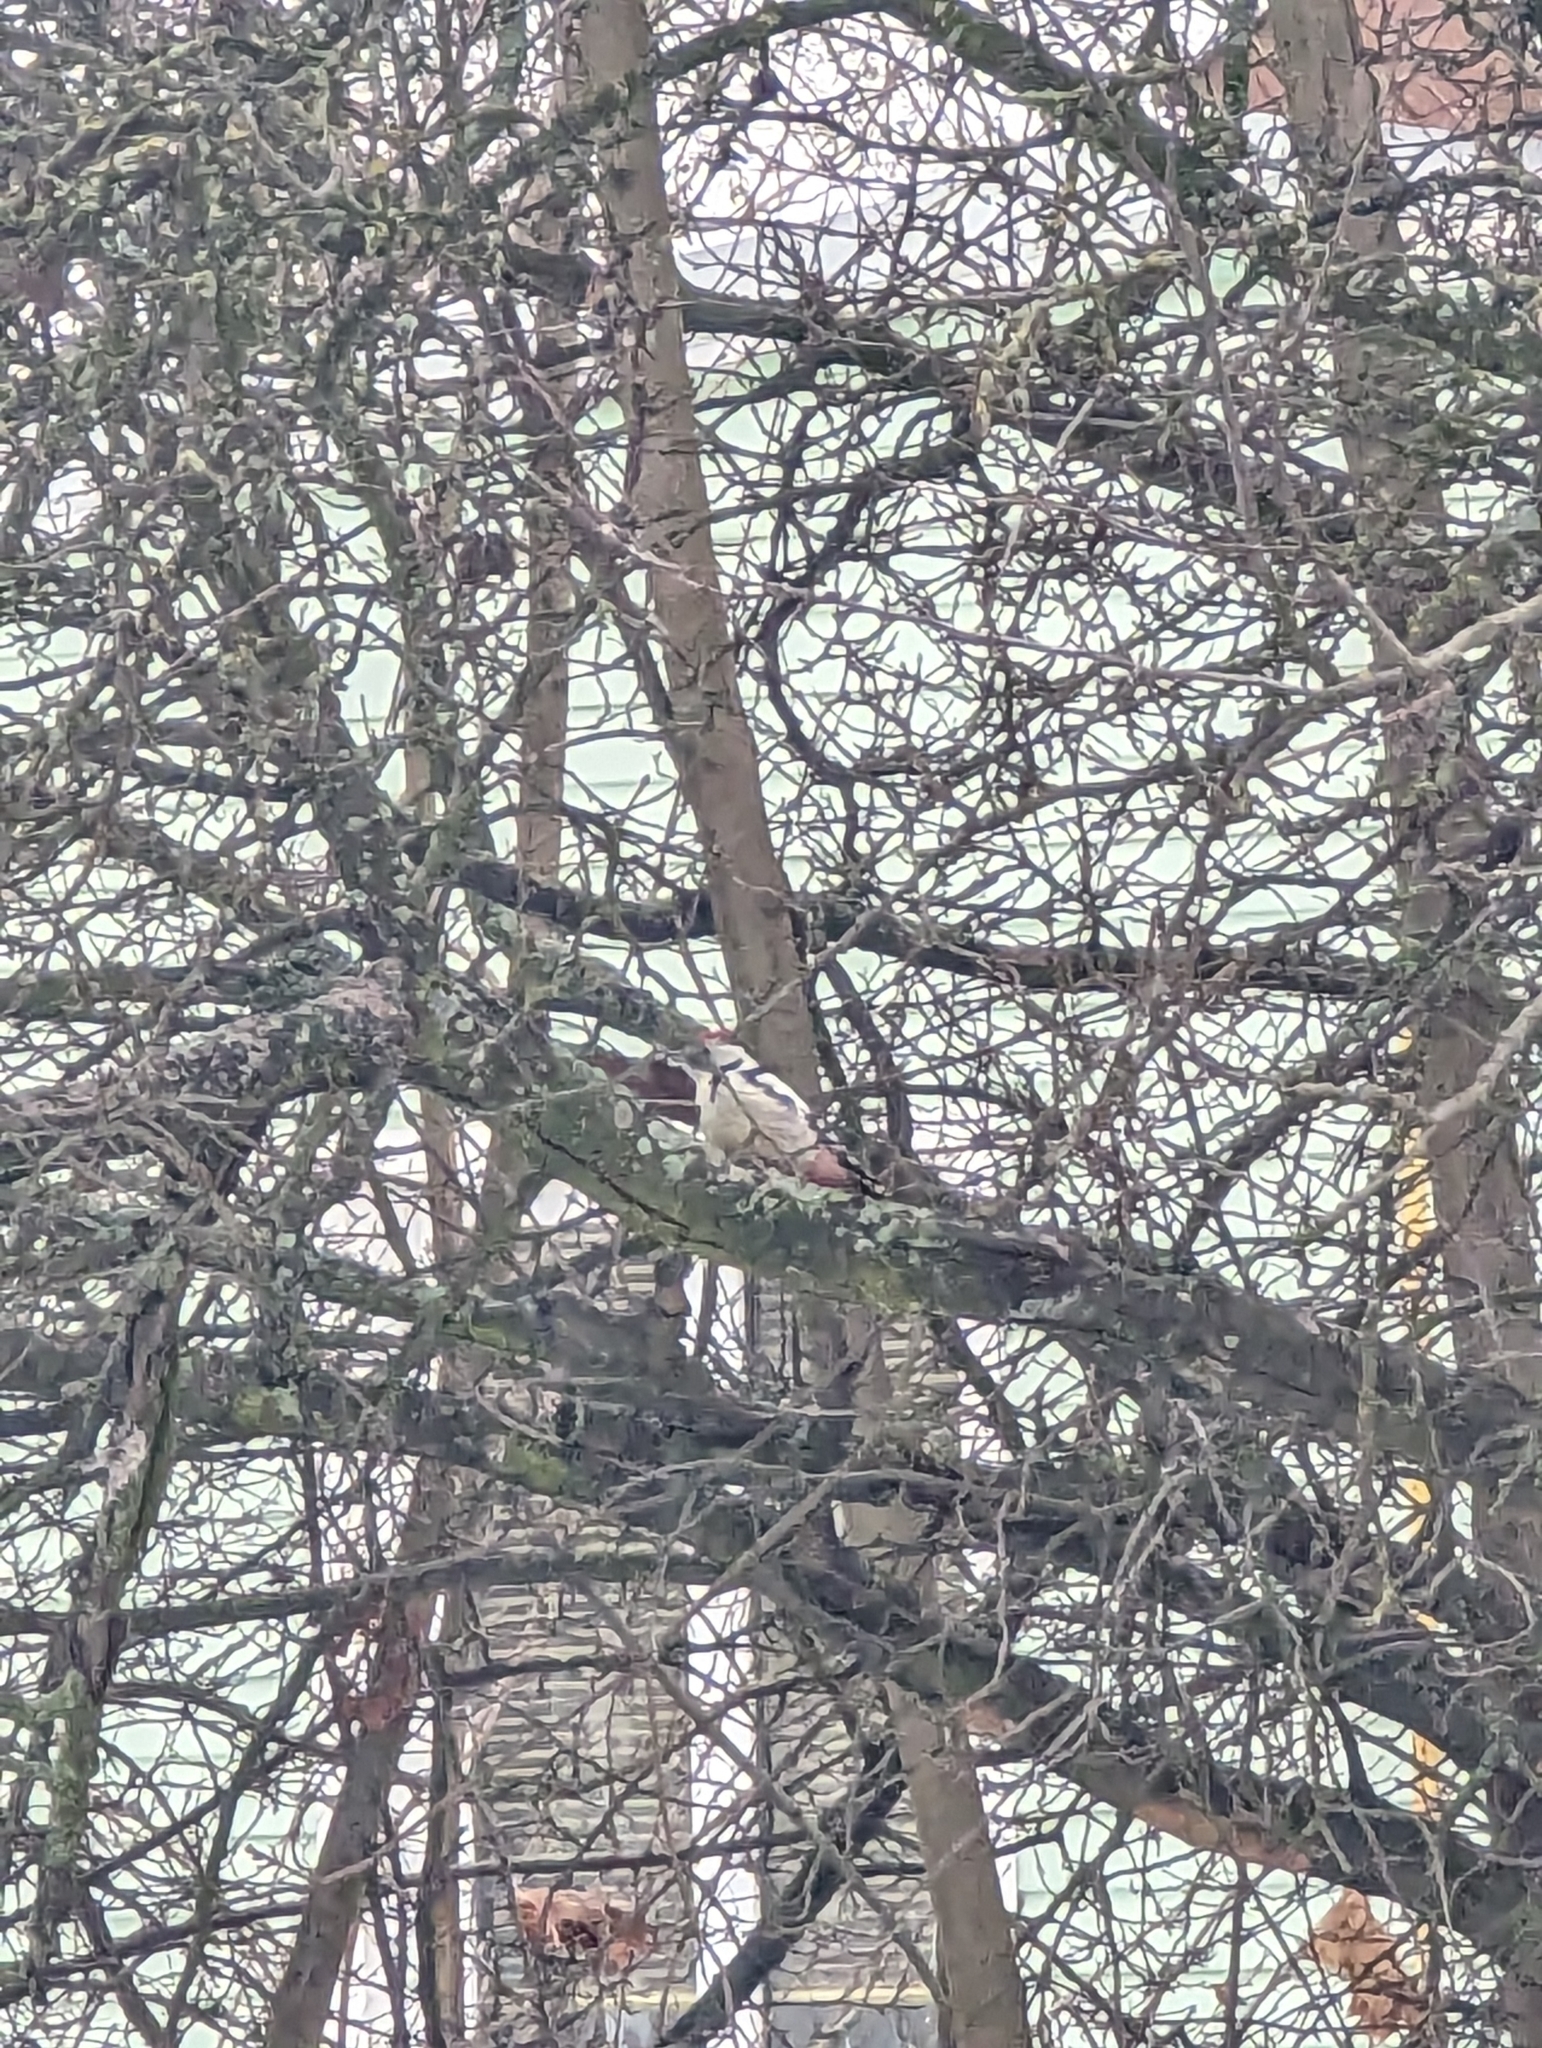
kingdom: Animalia
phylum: Chordata
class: Aves
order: Piciformes
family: Picidae
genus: Dendrocoptes
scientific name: Dendrocoptes medius
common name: Middle spotted woodpecker
